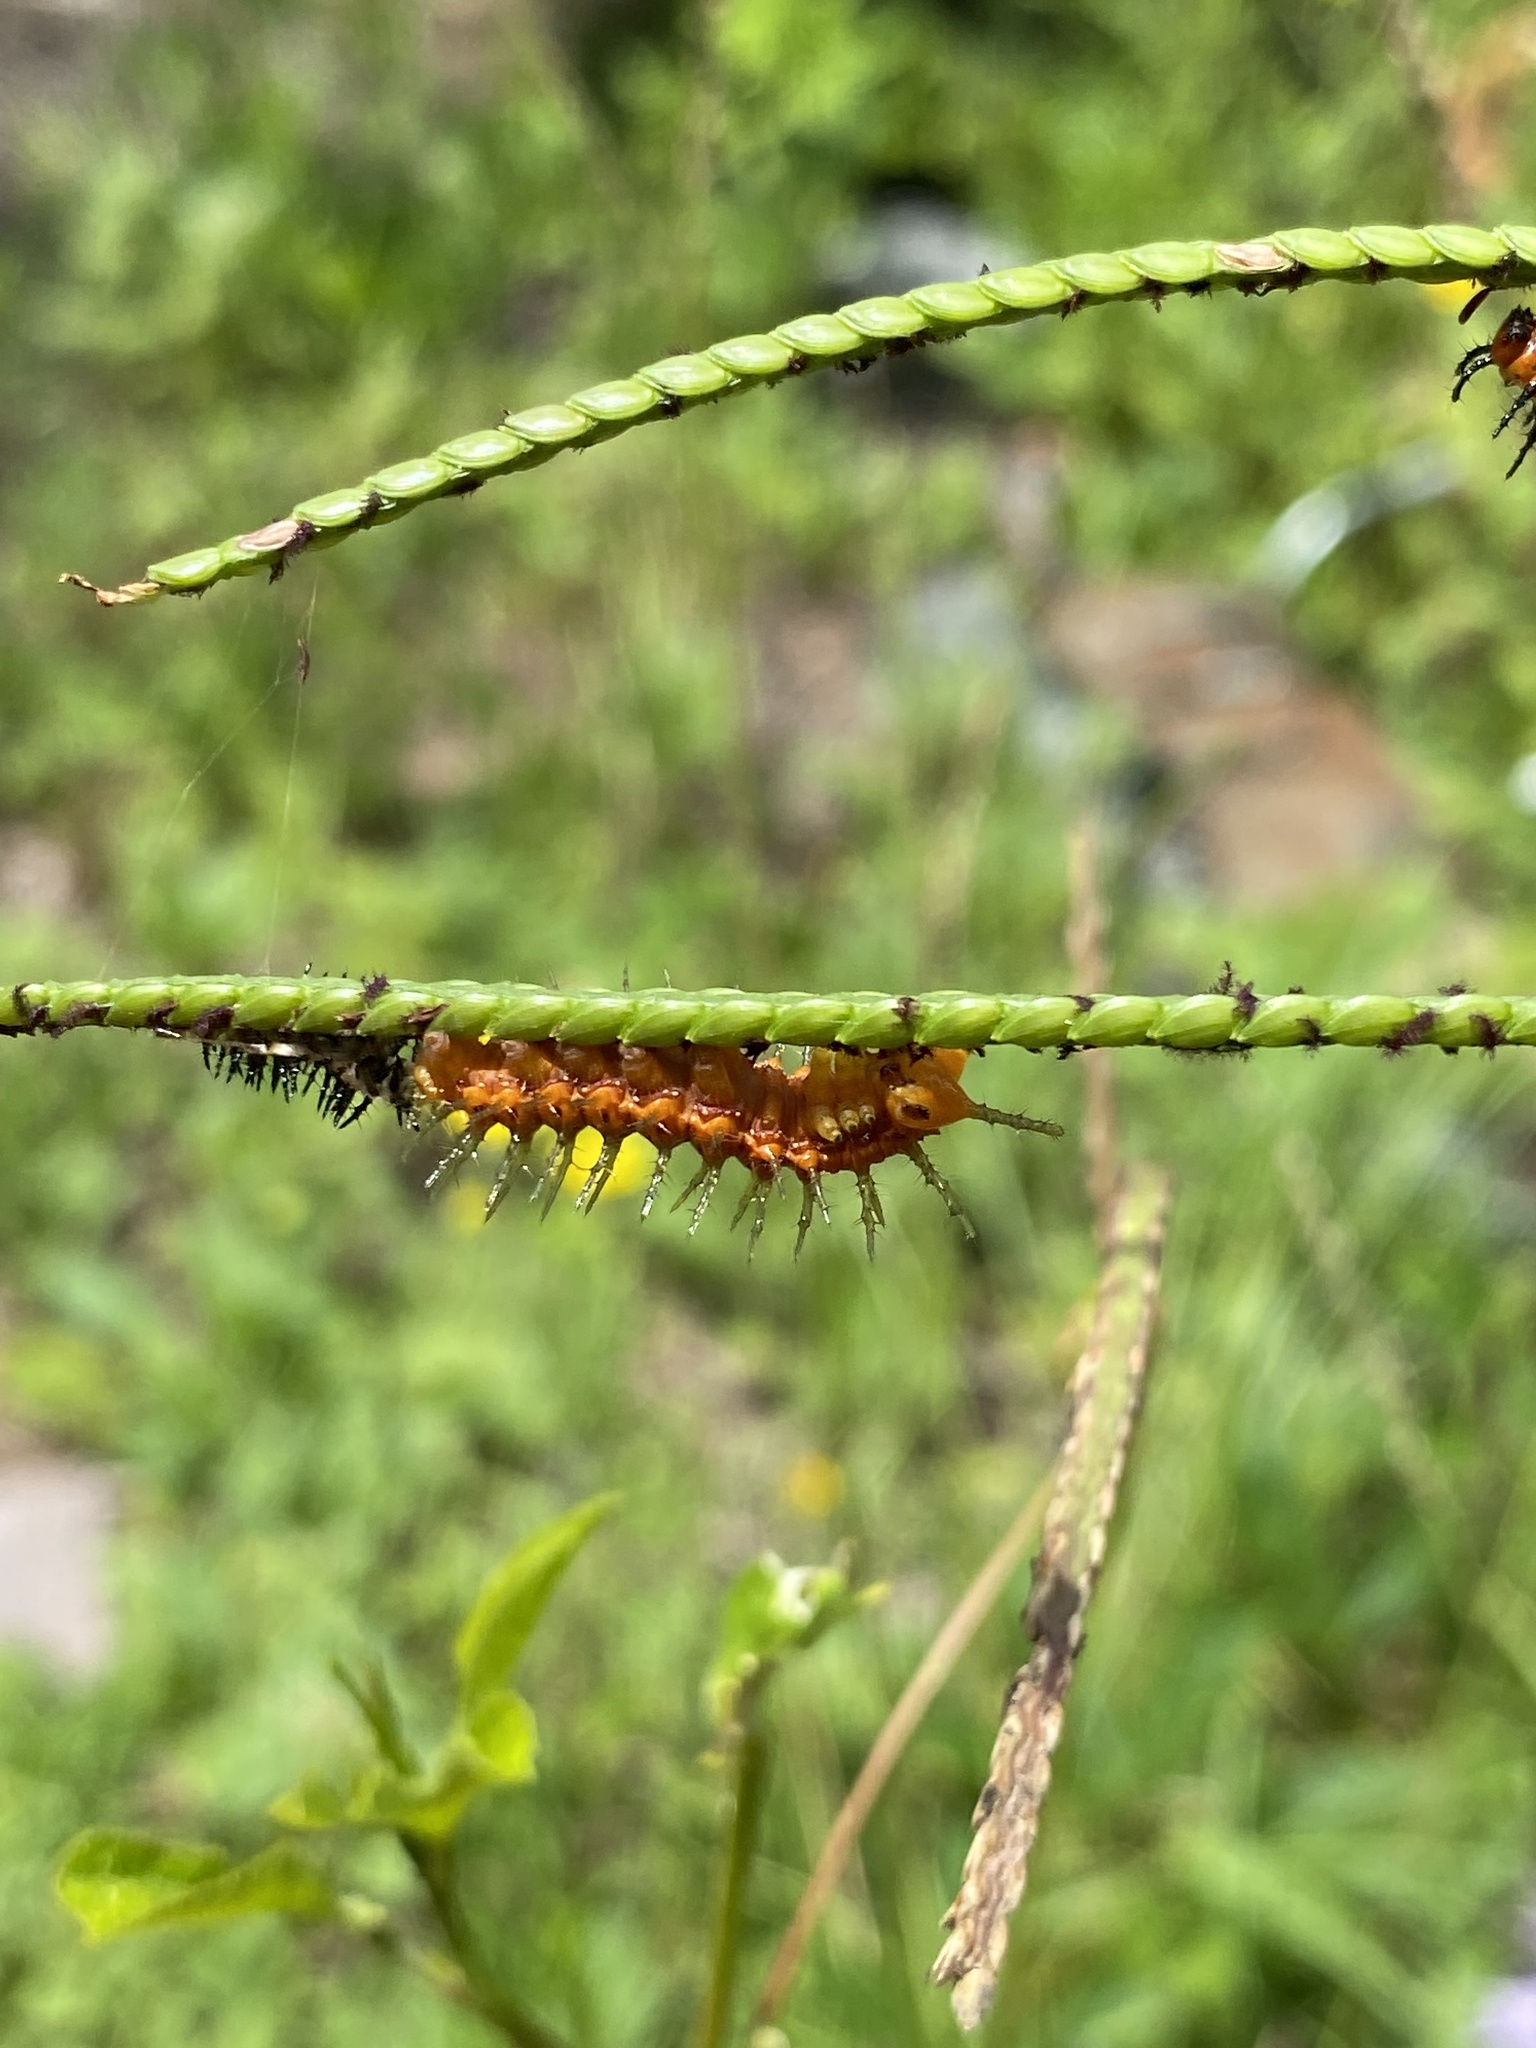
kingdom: Animalia
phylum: Arthropoda
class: Insecta
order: Lepidoptera
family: Nymphalidae
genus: Dione
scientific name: Dione vanillae
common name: Gulf fritillary
